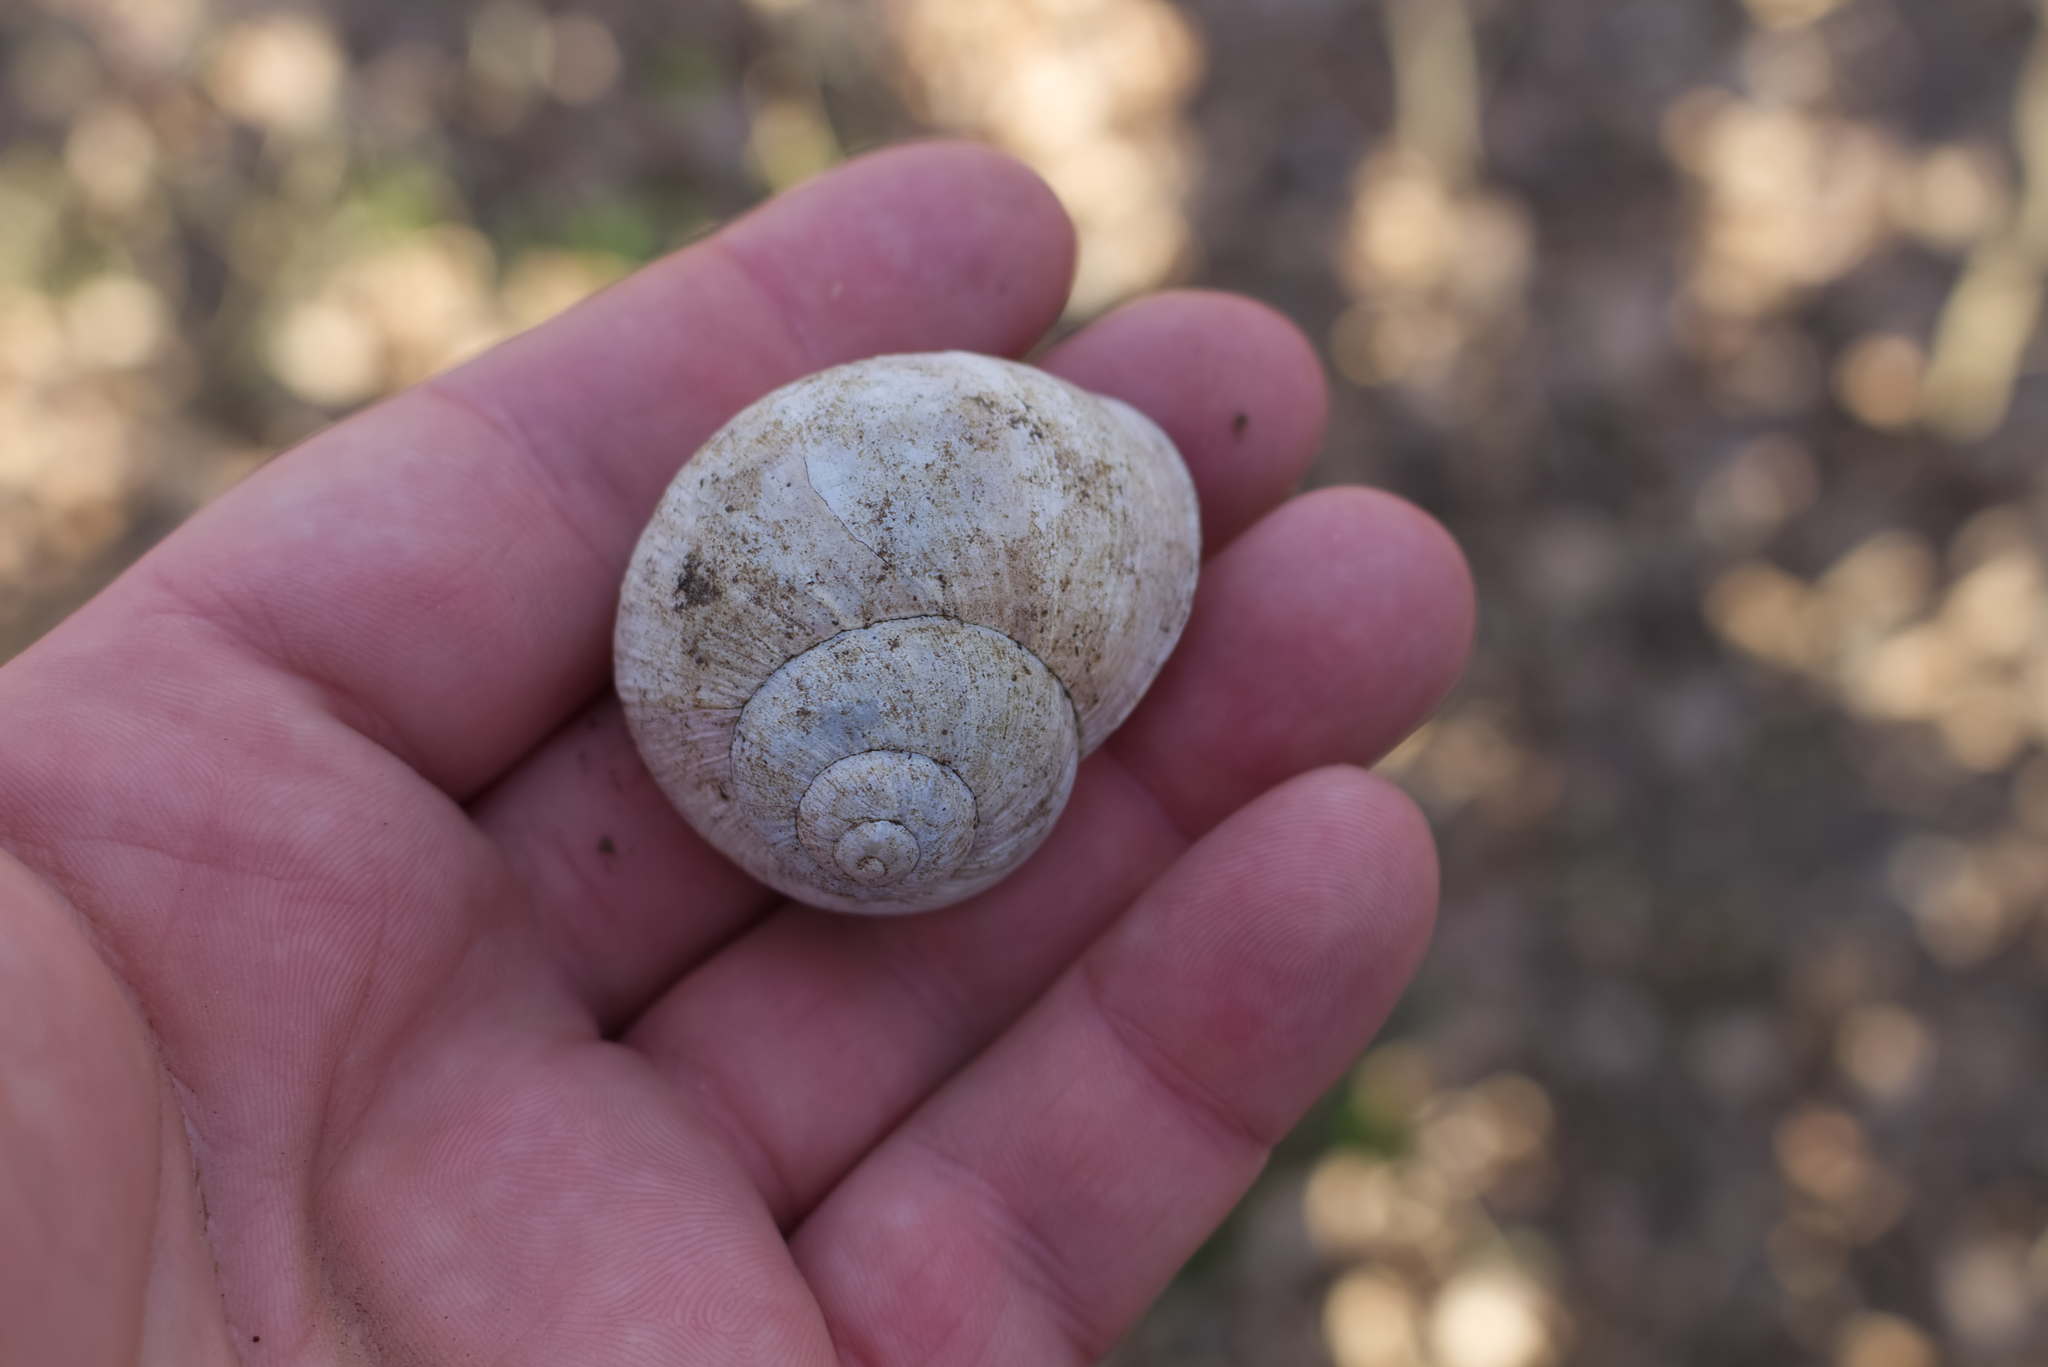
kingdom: Animalia
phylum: Mollusca
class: Gastropoda
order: Stylommatophora
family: Helicidae
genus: Helix
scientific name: Helix pomatia
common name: Roman snail
